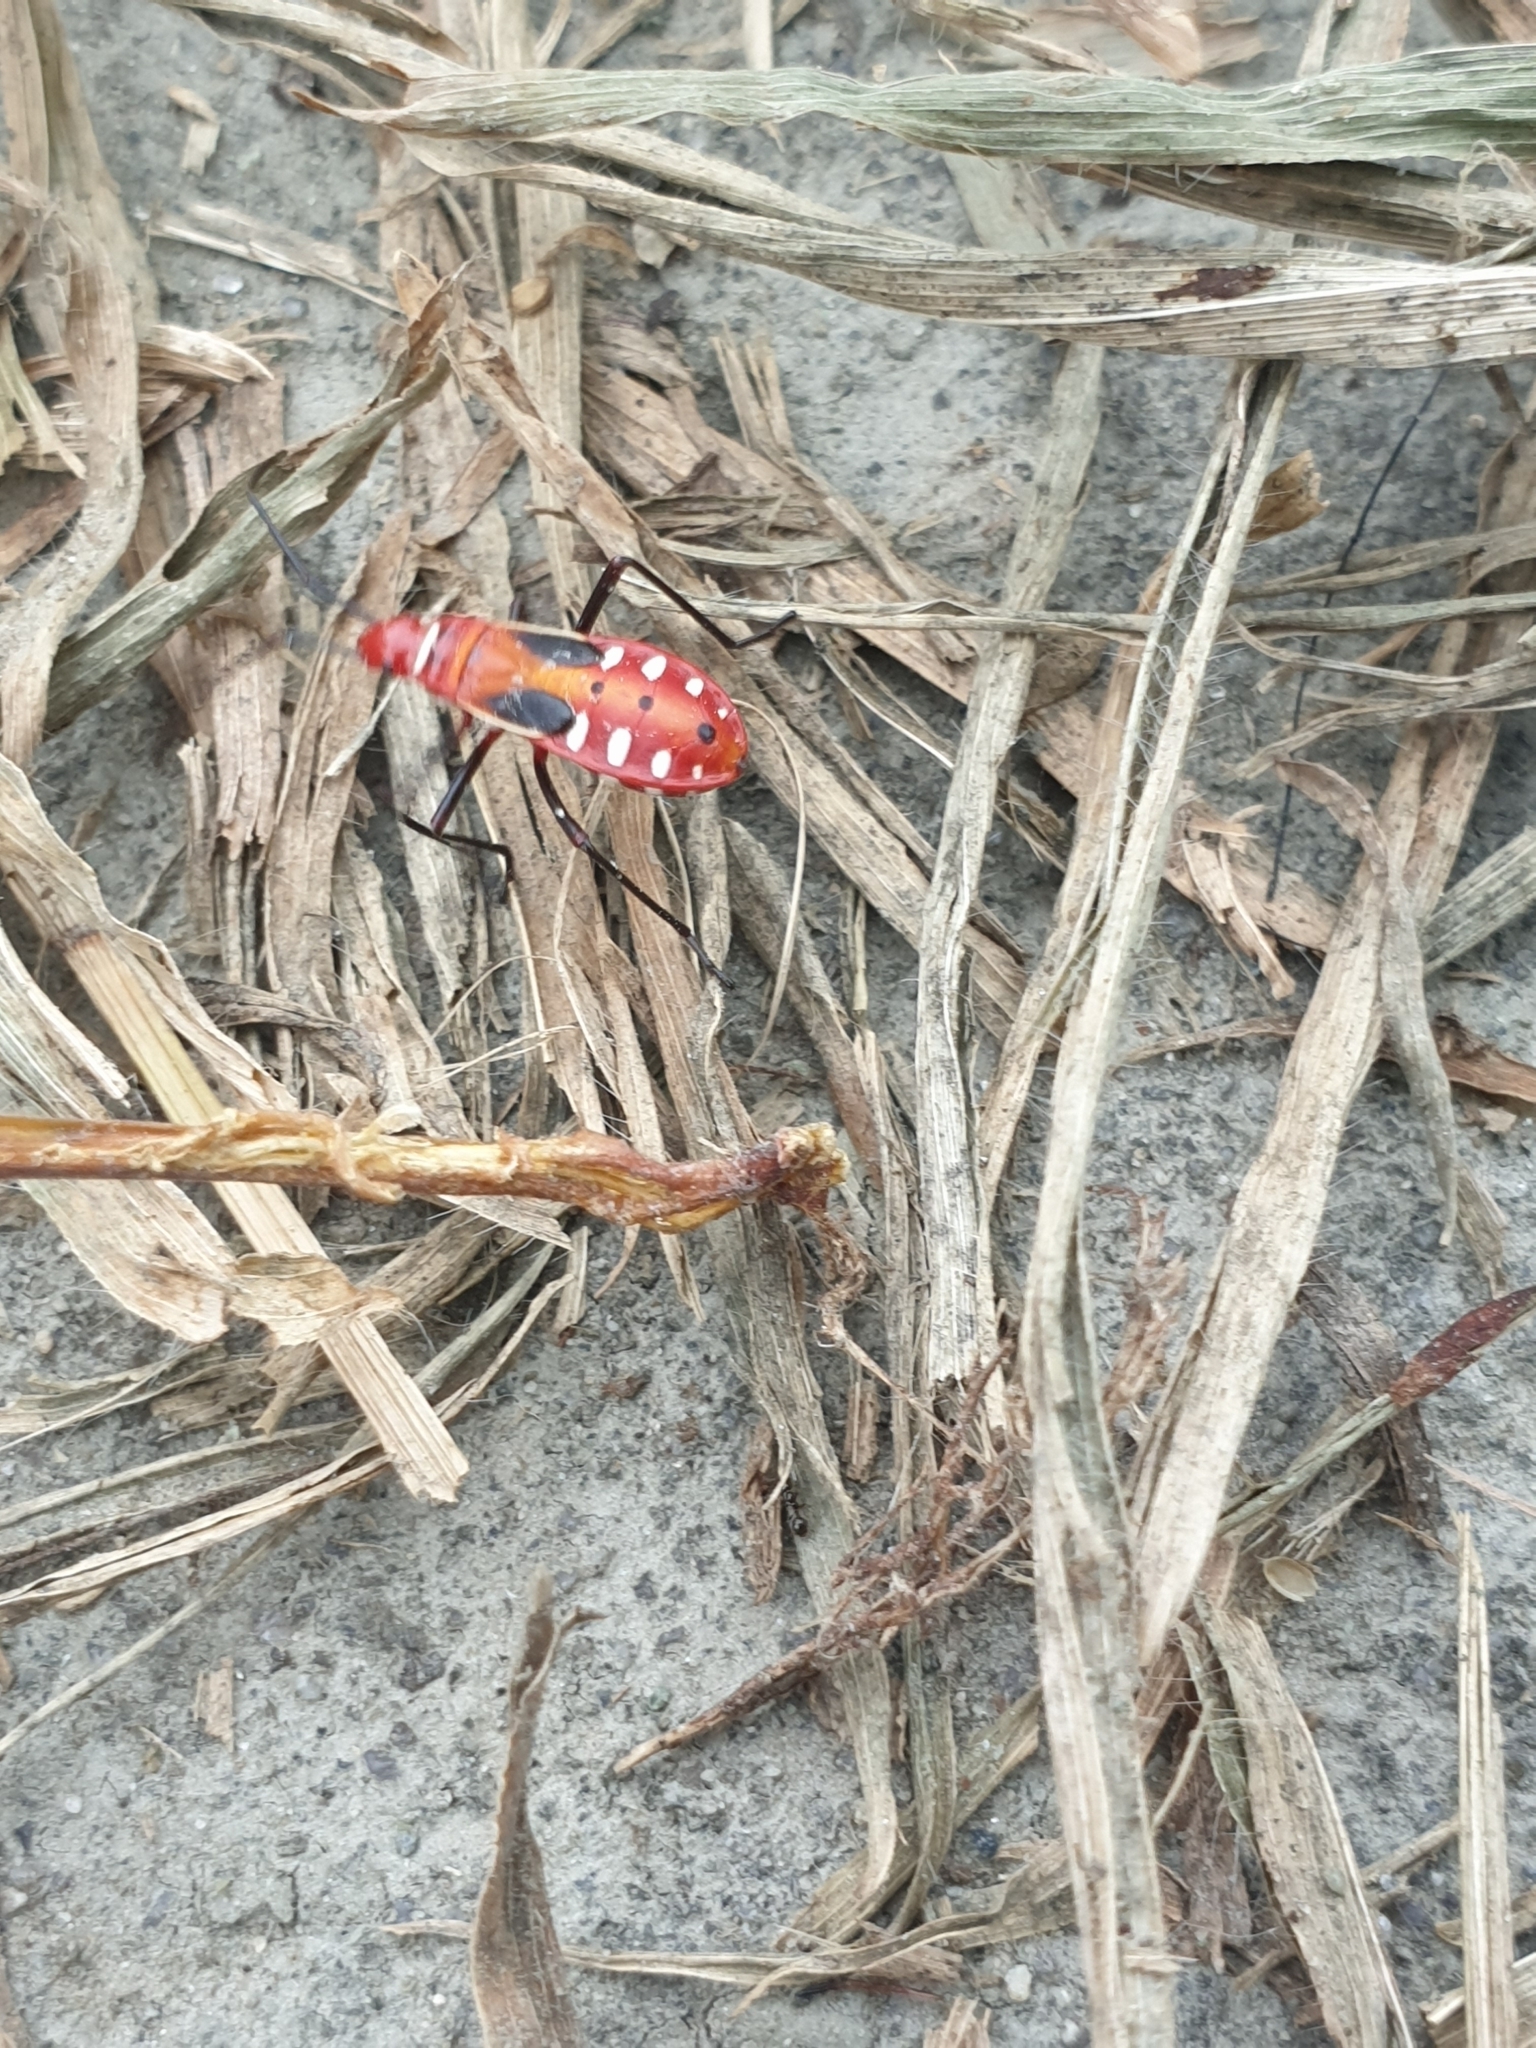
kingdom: Animalia
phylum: Arthropoda
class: Insecta
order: Hemiptera
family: Pyrrhocoridae
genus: Dysdercus
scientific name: Dysdercus cingulatus
